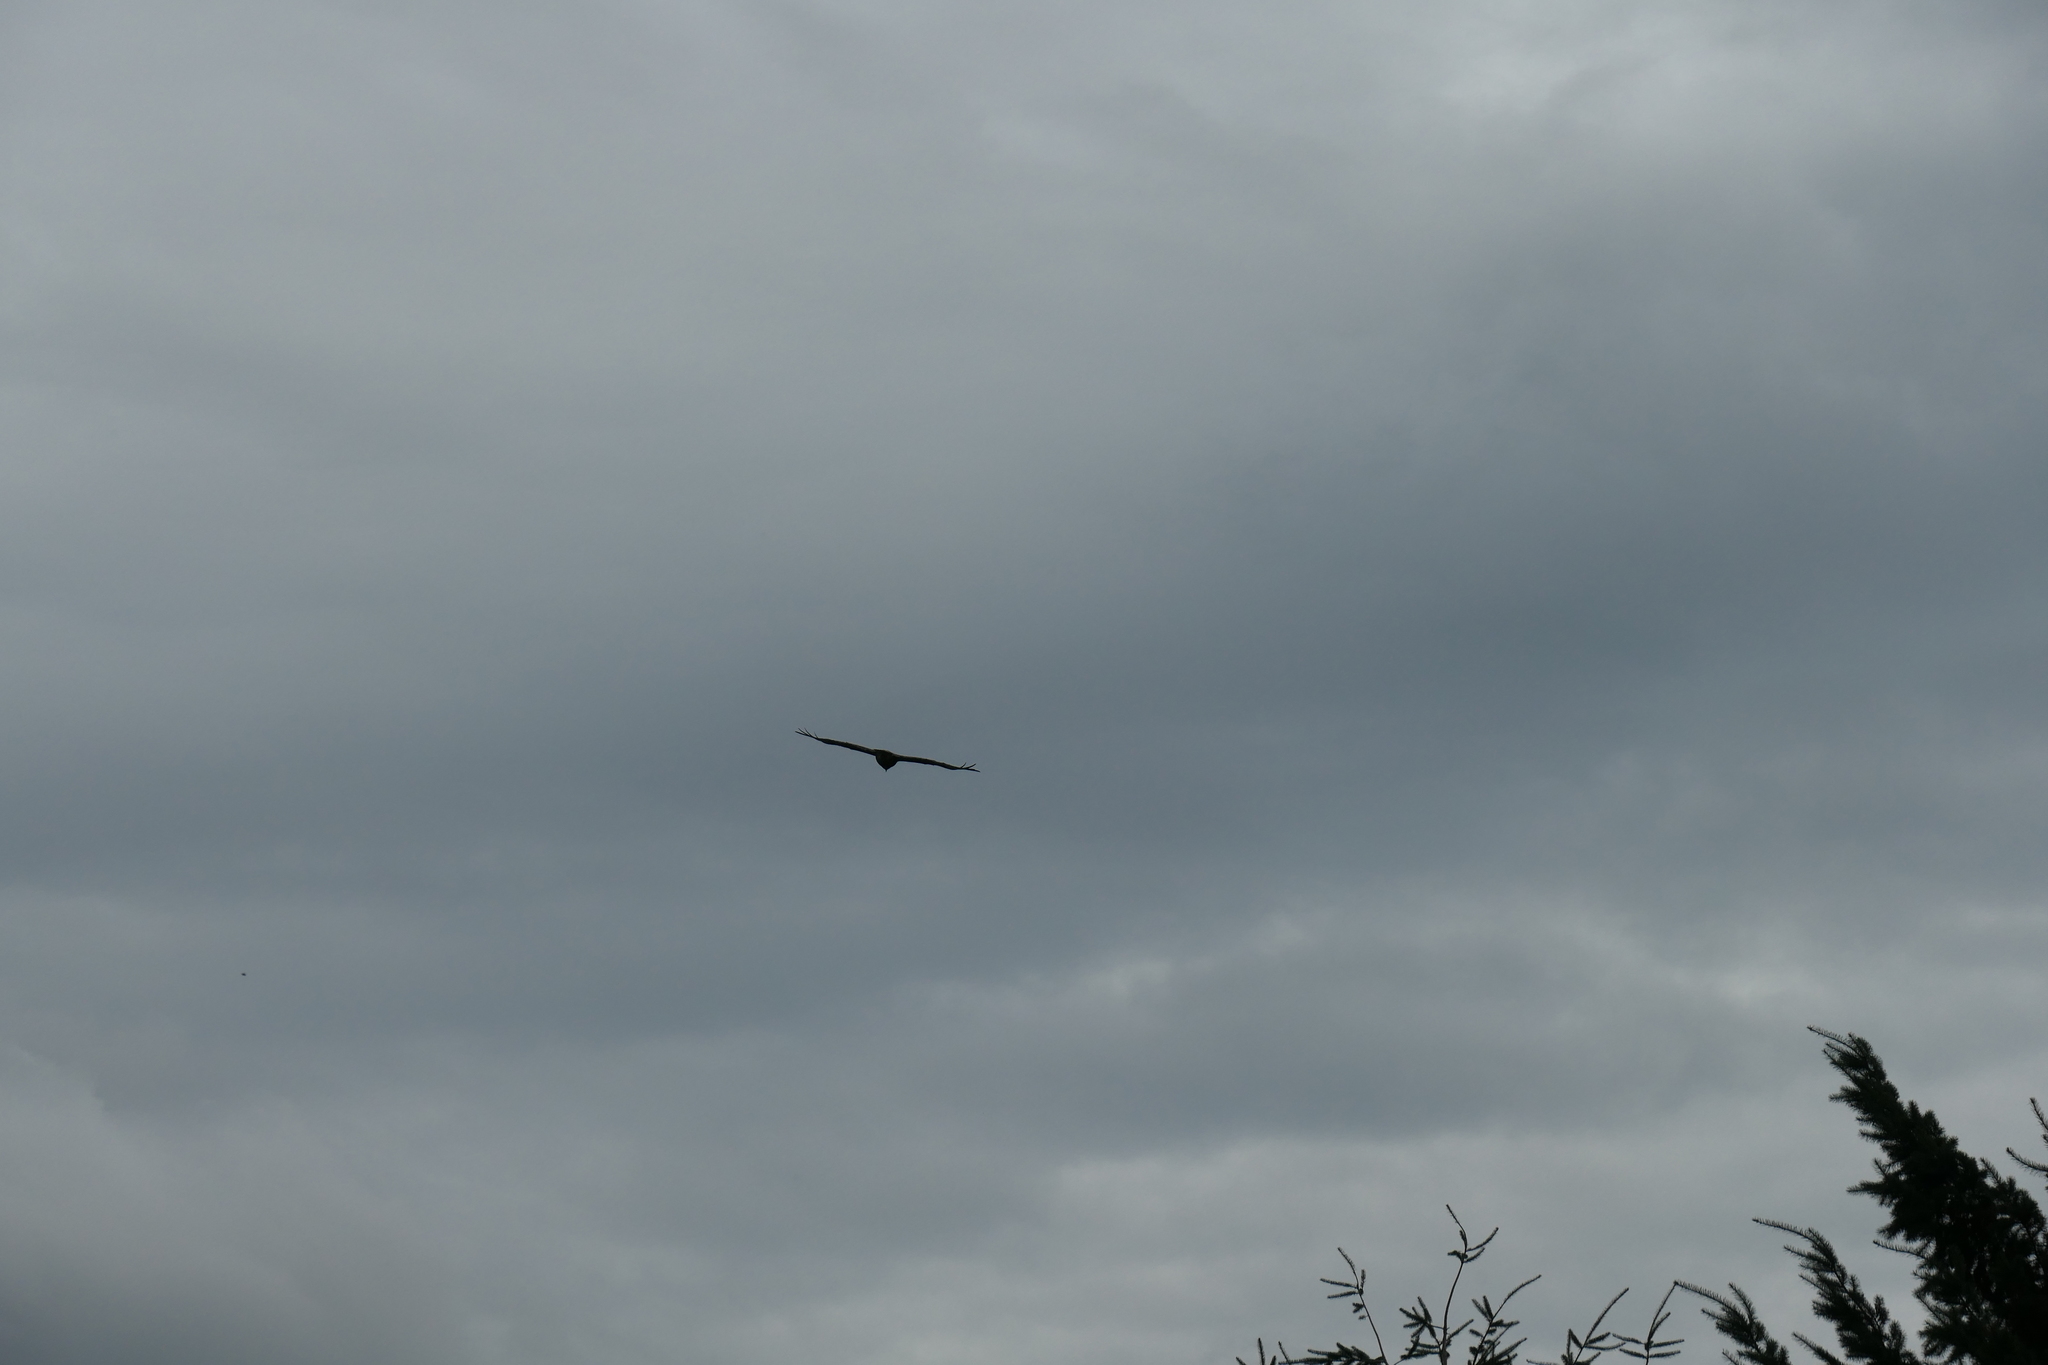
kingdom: Animalia
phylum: Chordata
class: Aves
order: Accipitriformes
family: Accipitridae
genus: Buteo
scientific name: Buteo jamaicensis
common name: Red-tailed hawk
